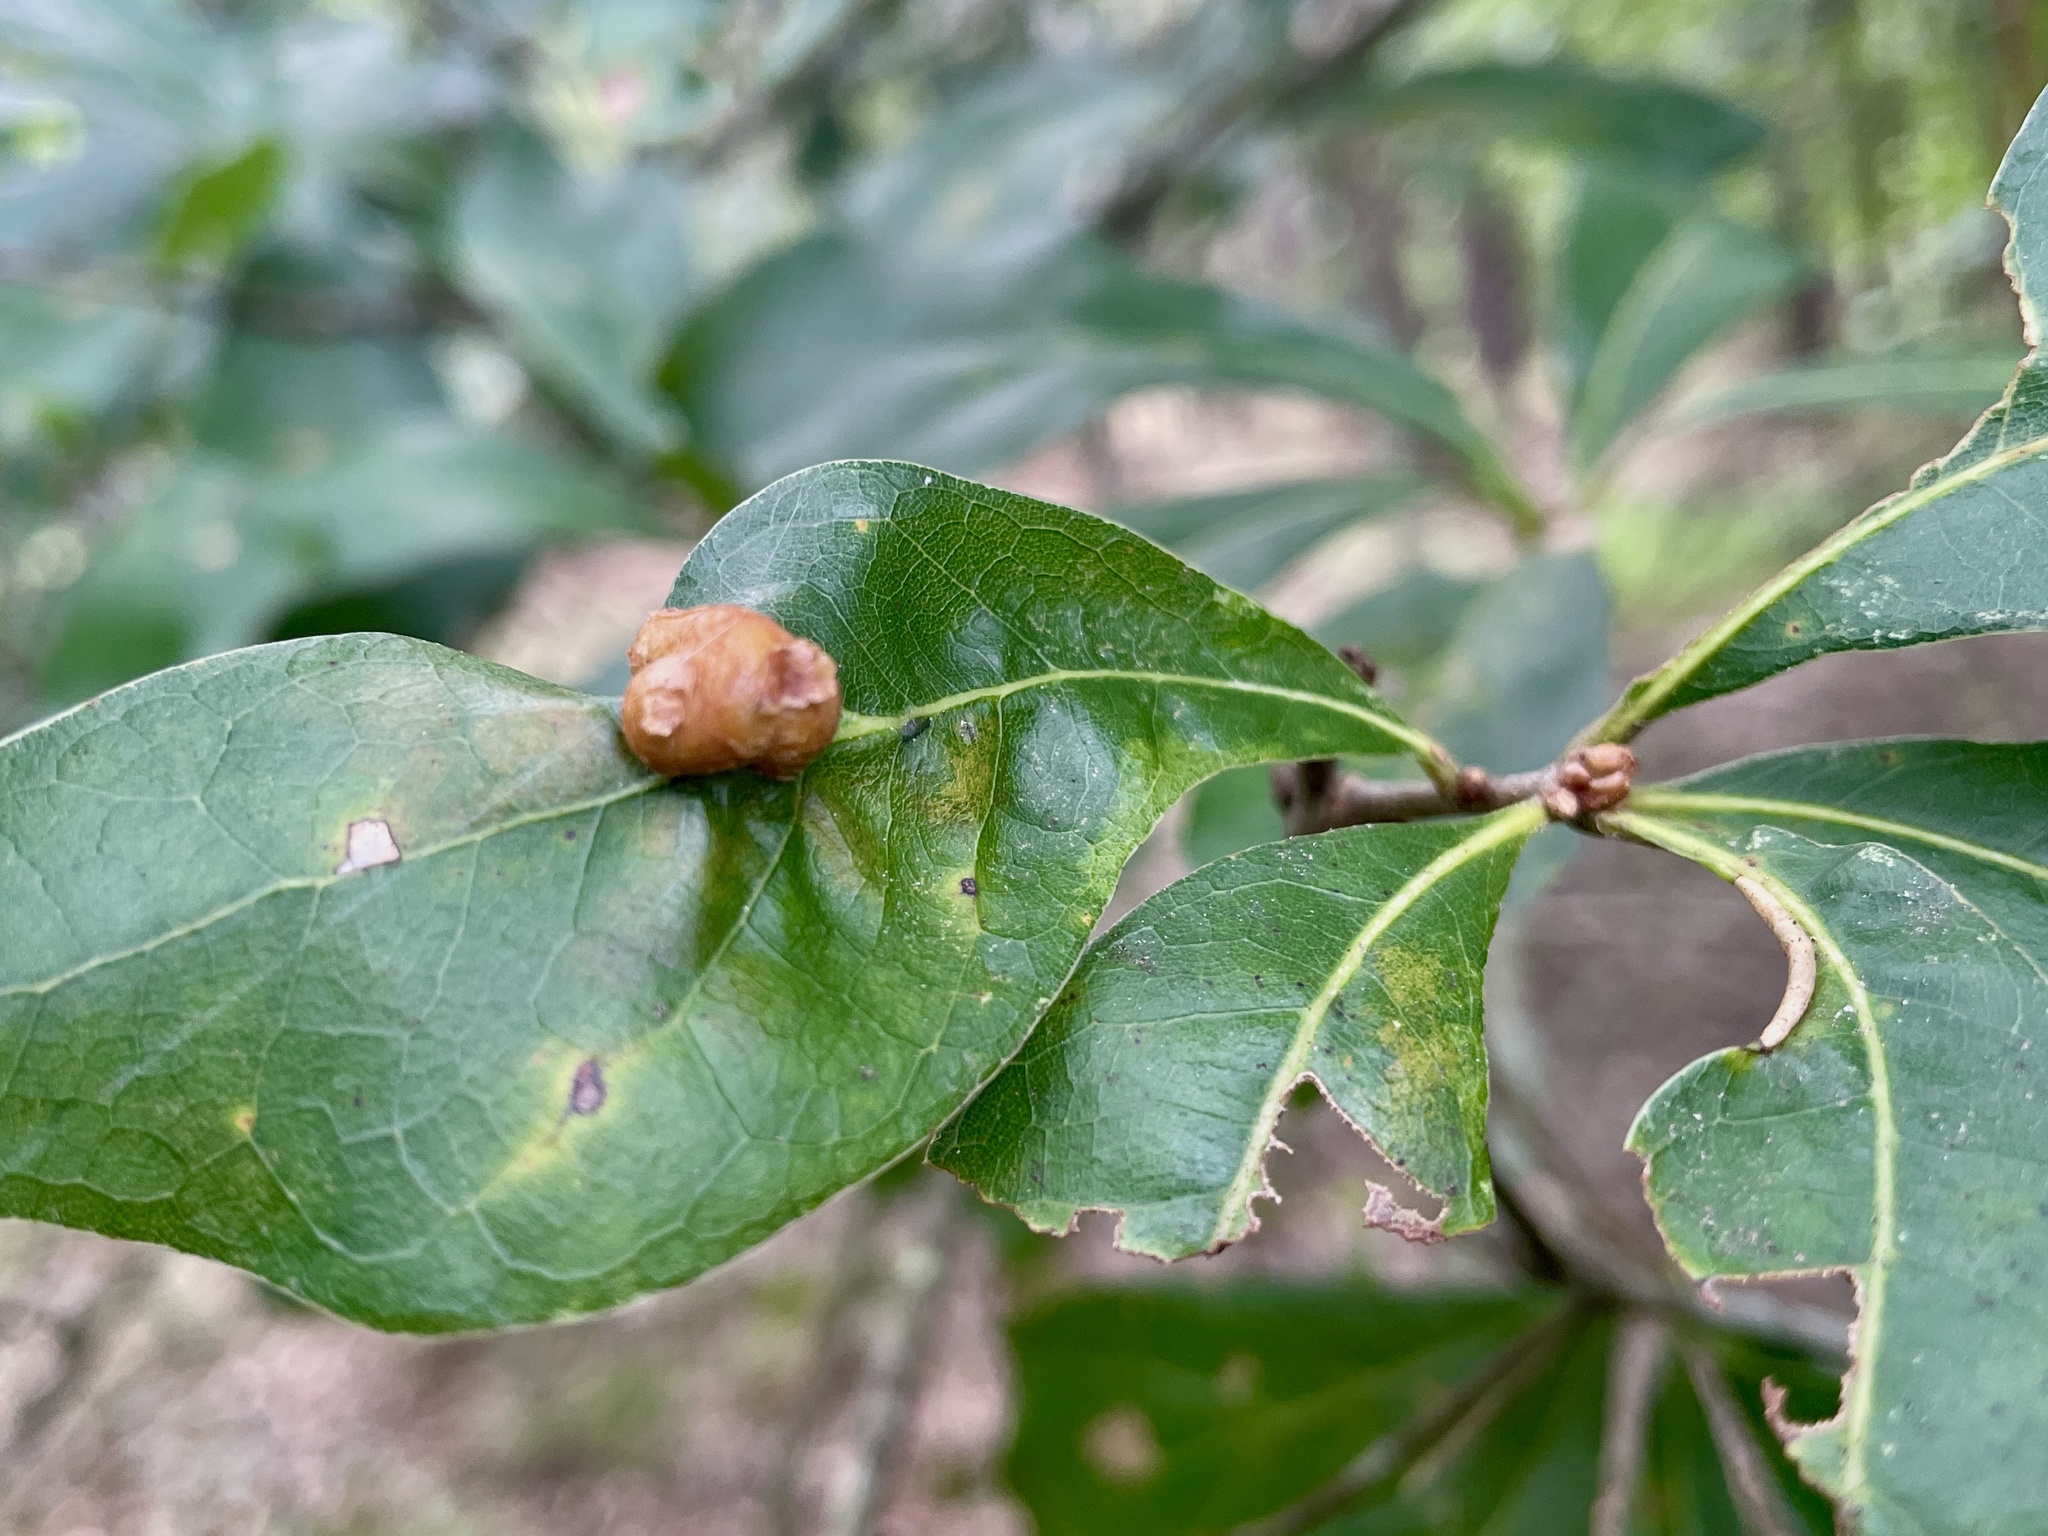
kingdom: Animalia
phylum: Arthropoda
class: Insecta
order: Diptera
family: Cecidomyiidae
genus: Polystepha
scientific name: Polystepha pilulae
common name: Oak leaf gall midge
